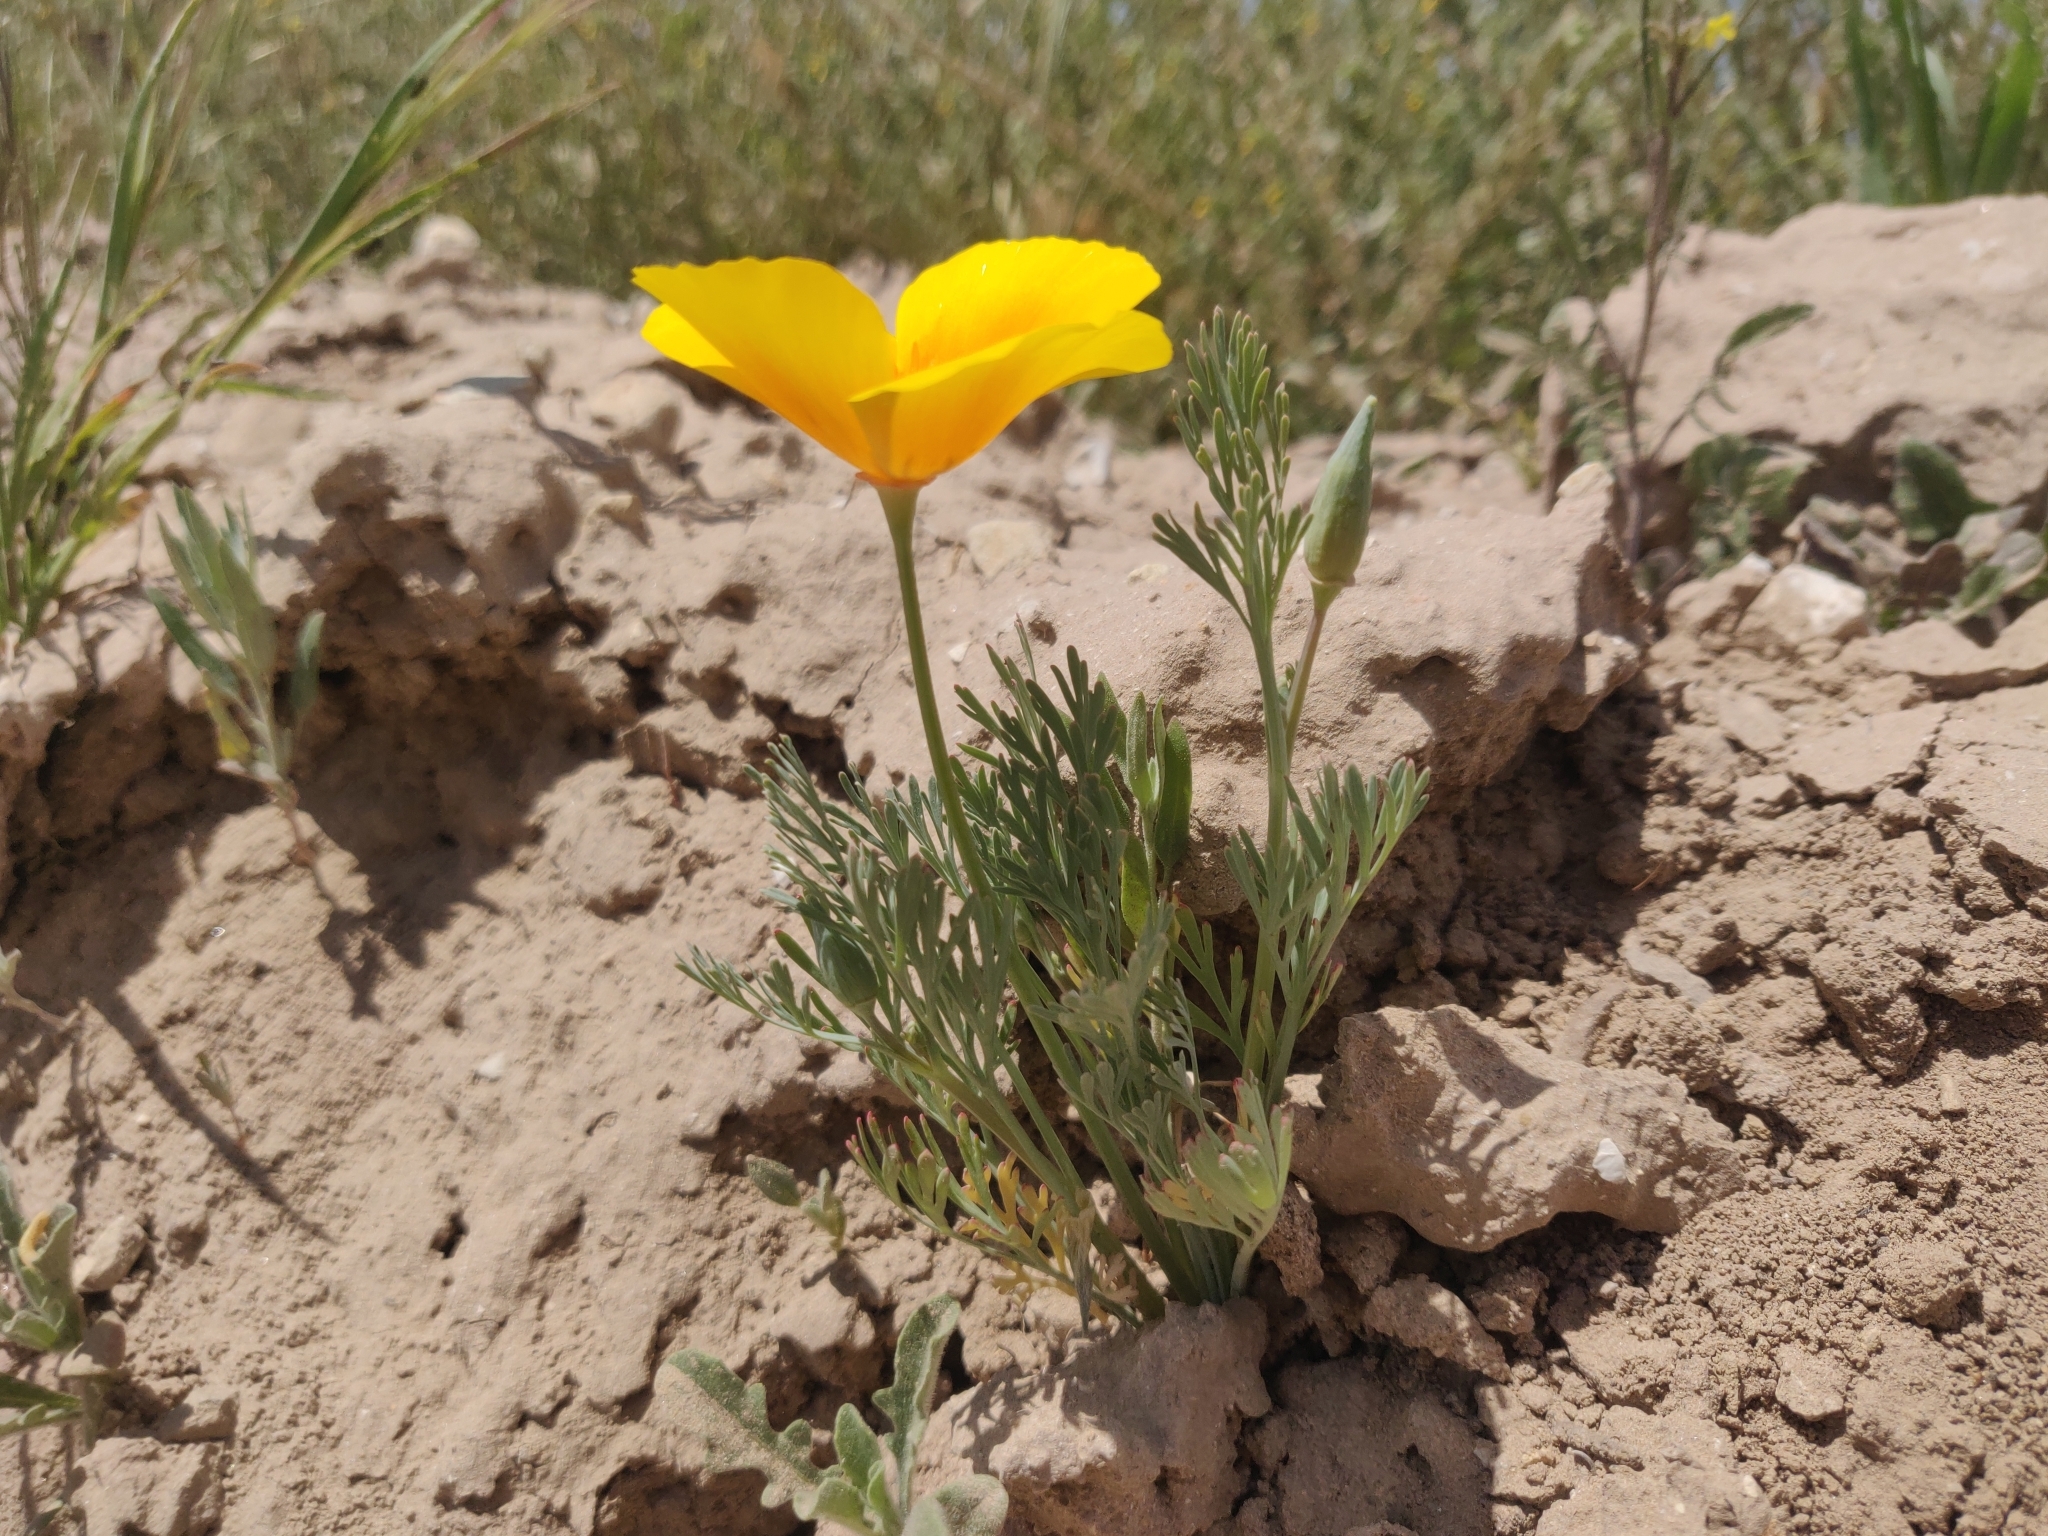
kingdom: Plantae
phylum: Tracheophyta
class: Magnoliopsida
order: Ranunculales
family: Papaveraceae
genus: Eschscholzia
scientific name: Eschscholzia californica
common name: California poppy
